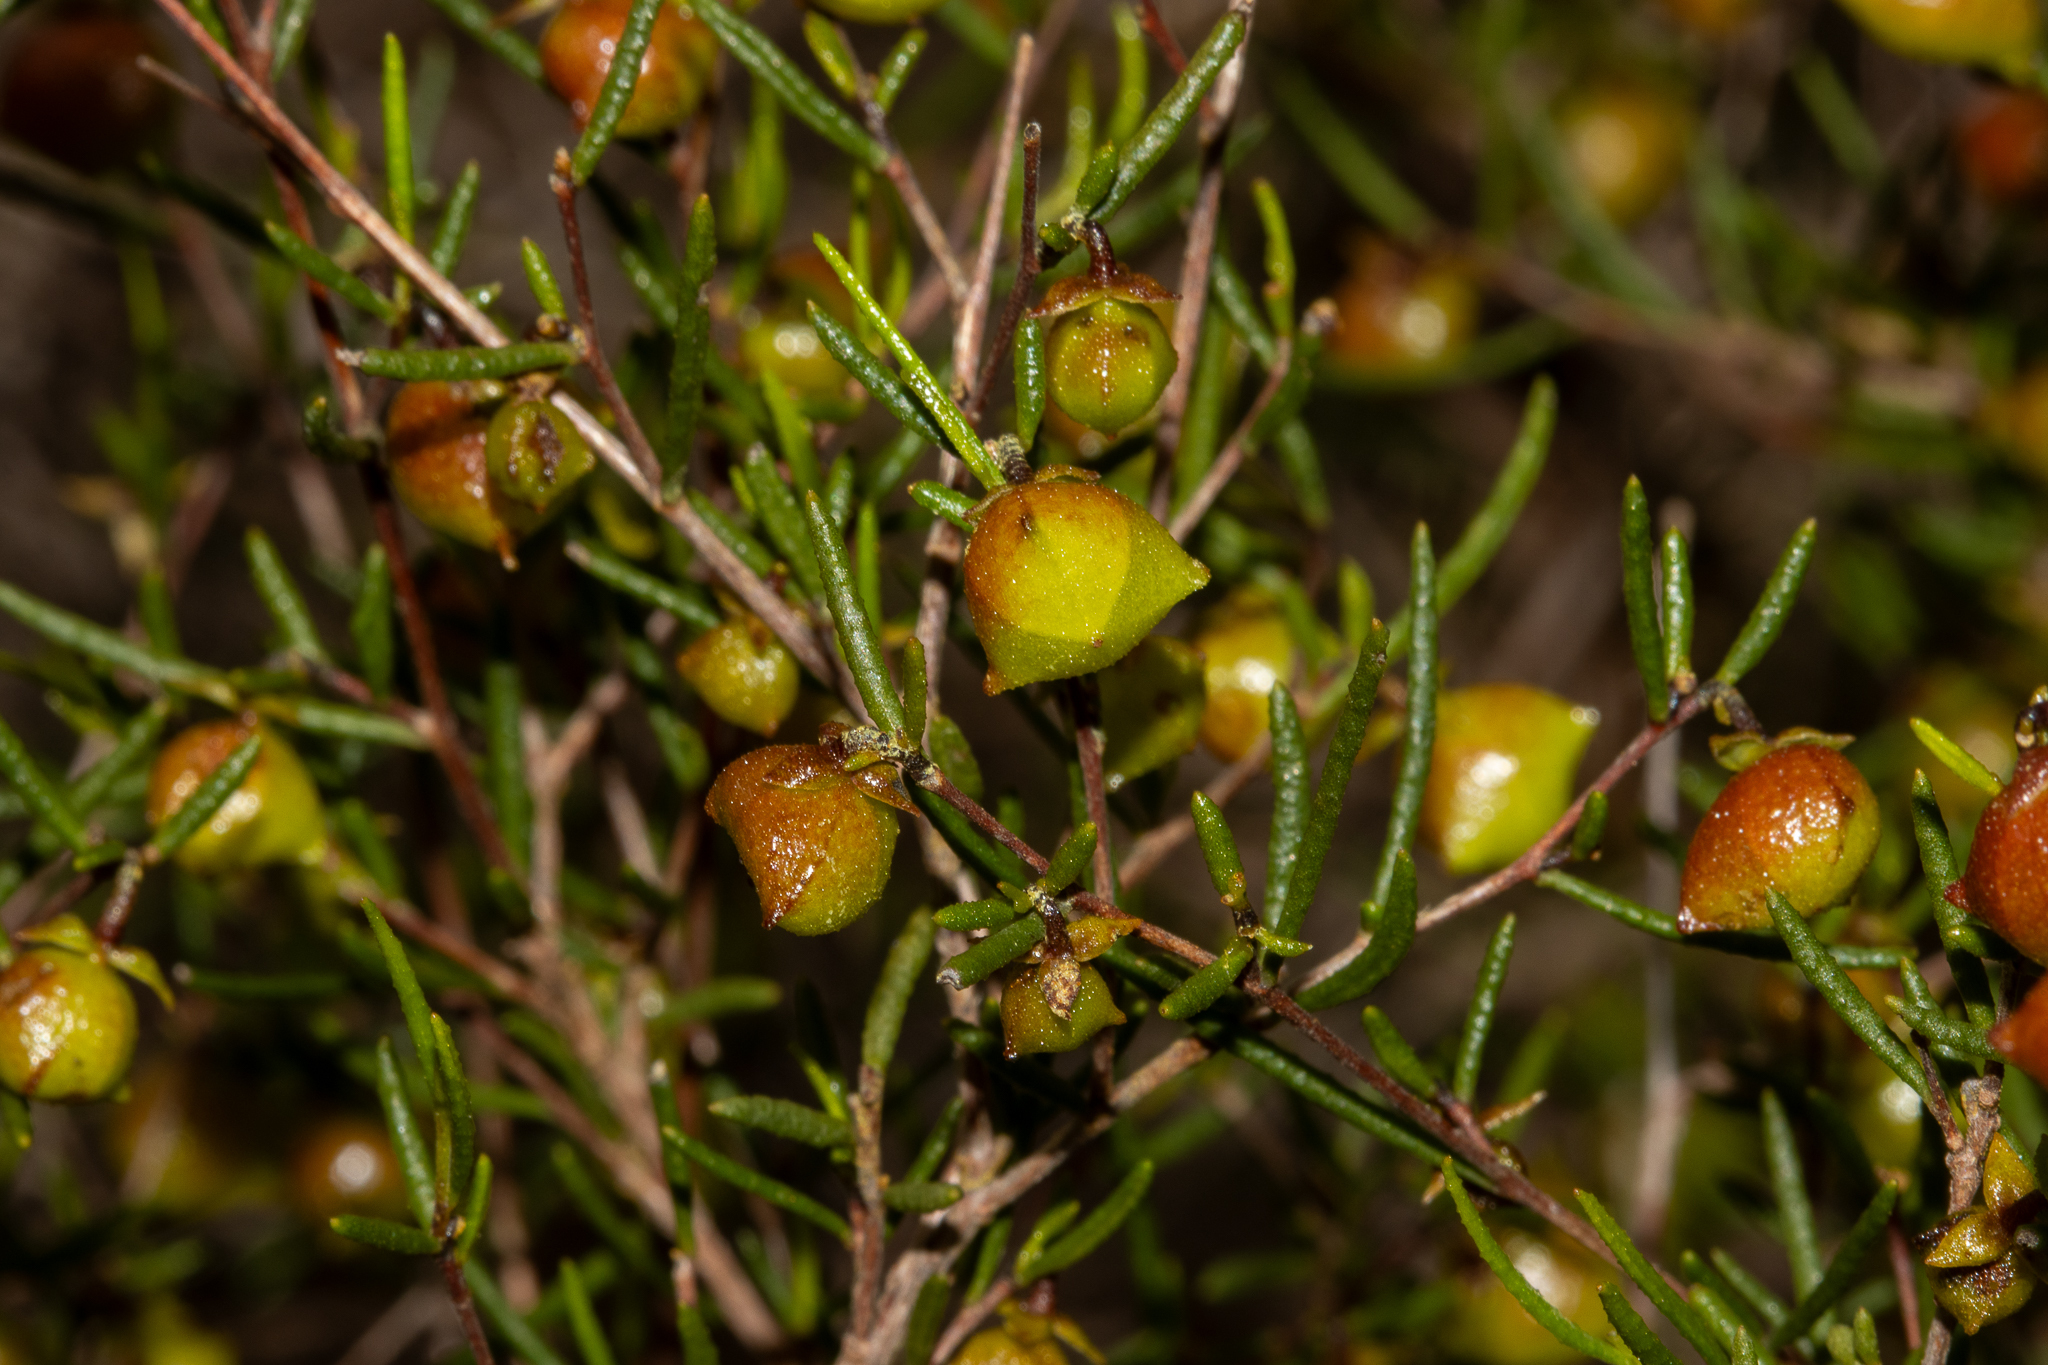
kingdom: Plantae
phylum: Tracheophyta
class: Magnoliopsida
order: Sapindales
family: Sapindaceae
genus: Dodonaea
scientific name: Dodonaea hexandra
